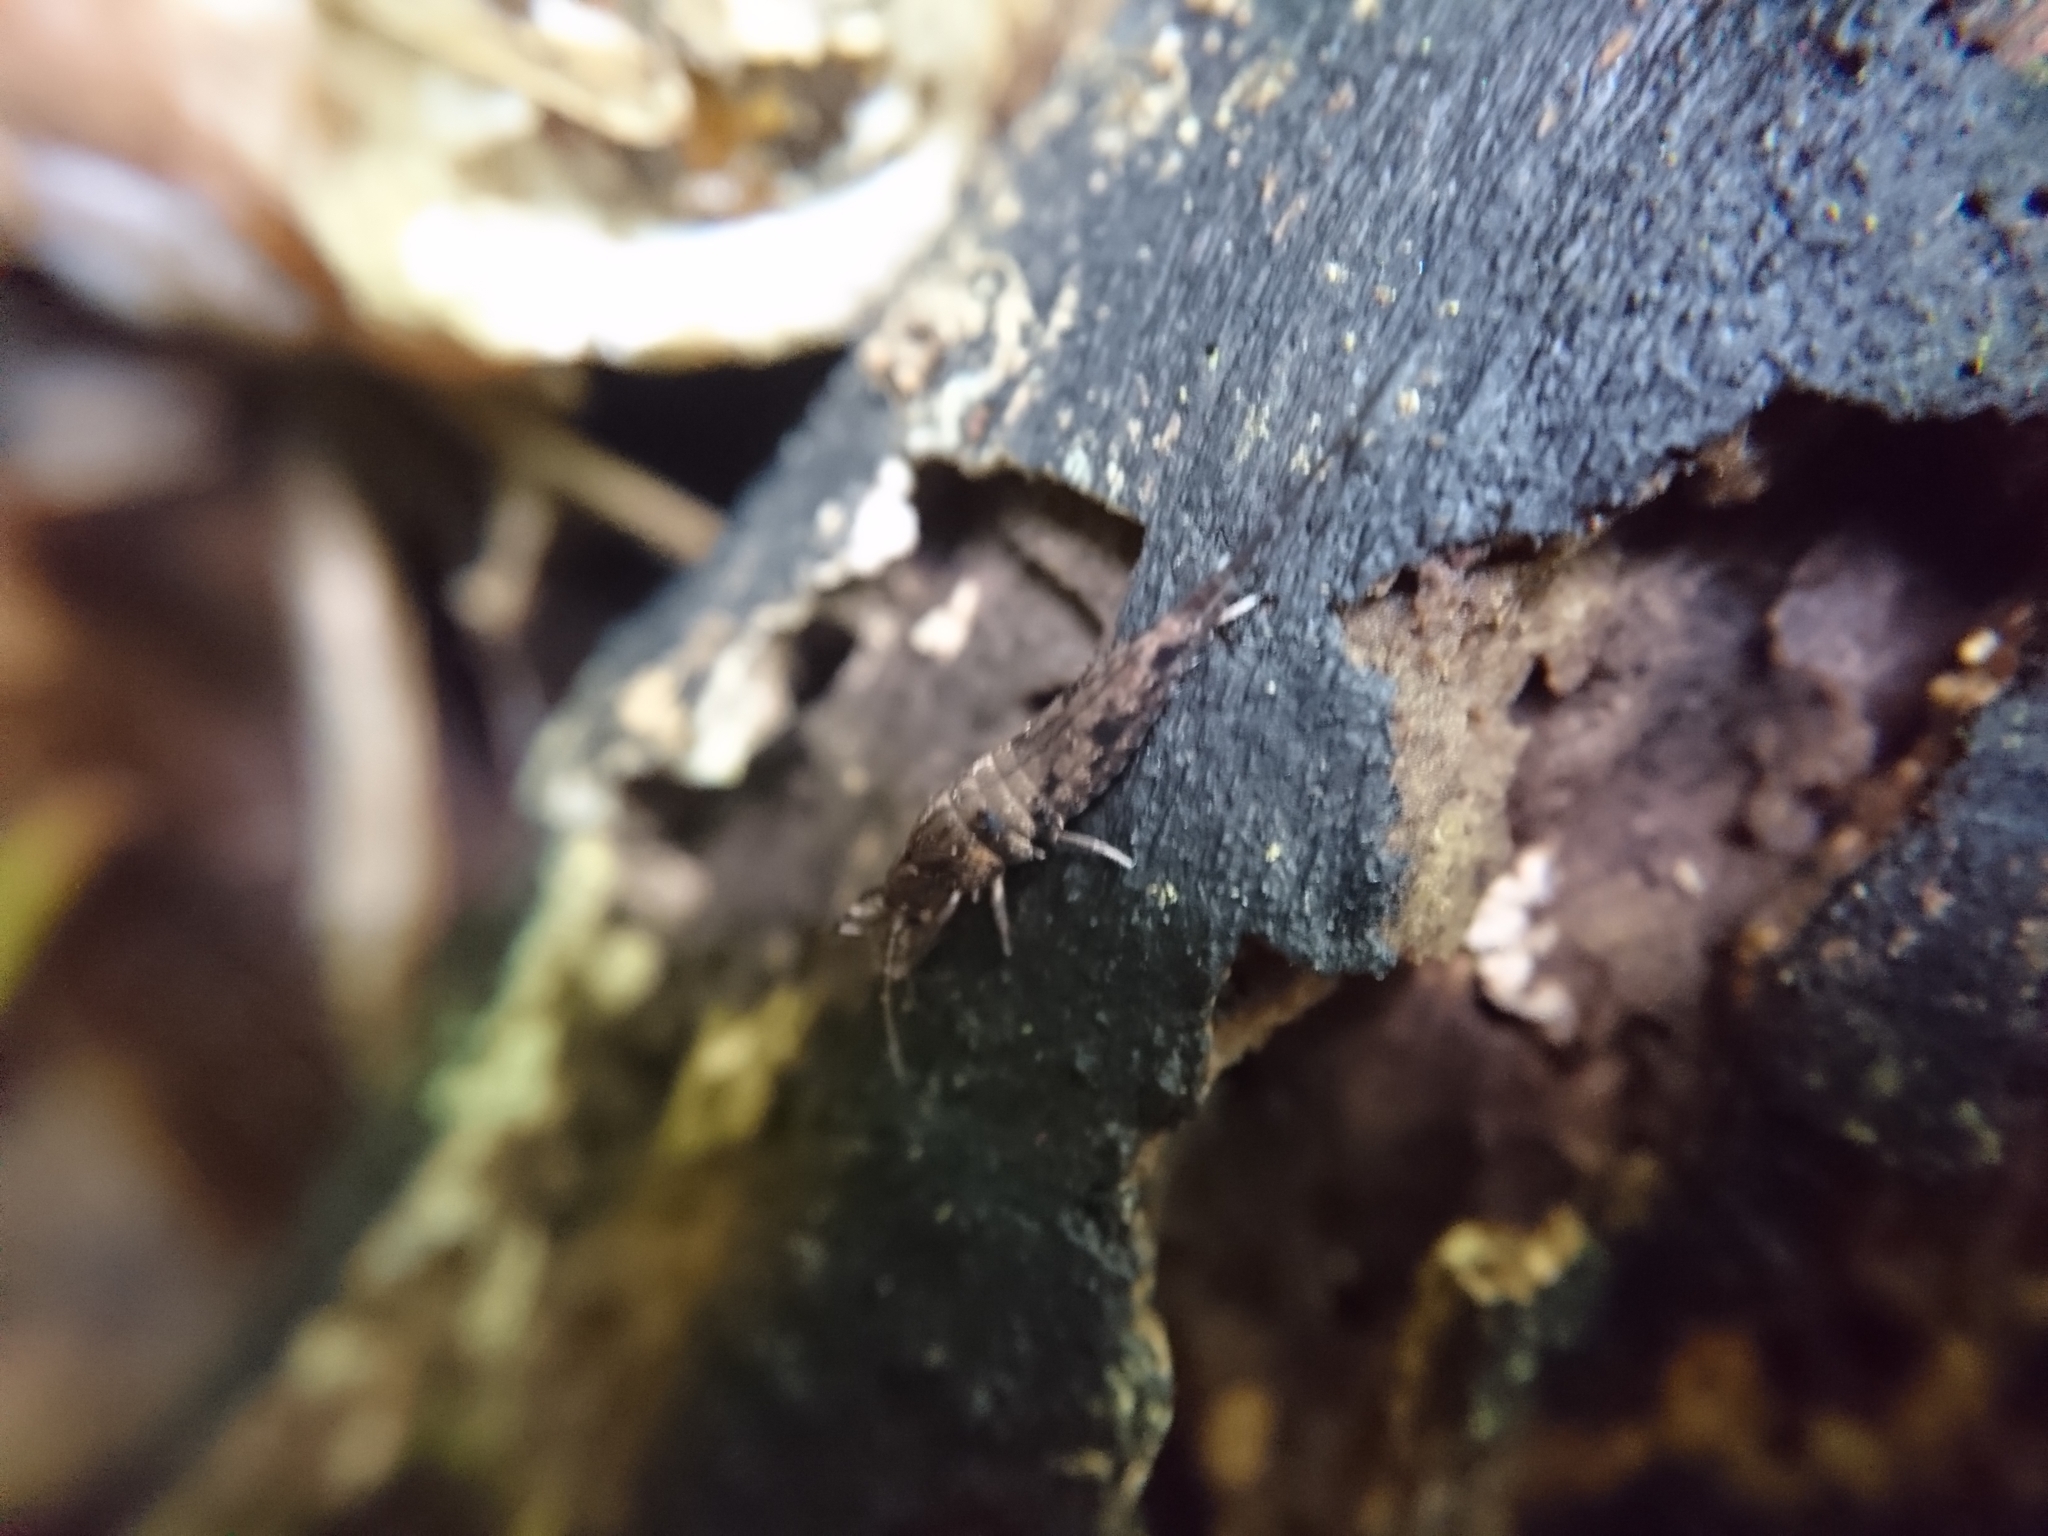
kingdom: Animalia
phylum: Arthropoda
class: Insecta
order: Archaeognatha
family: Machilidae
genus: Dilta
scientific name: Dilta chateri
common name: Chater's bristletail
